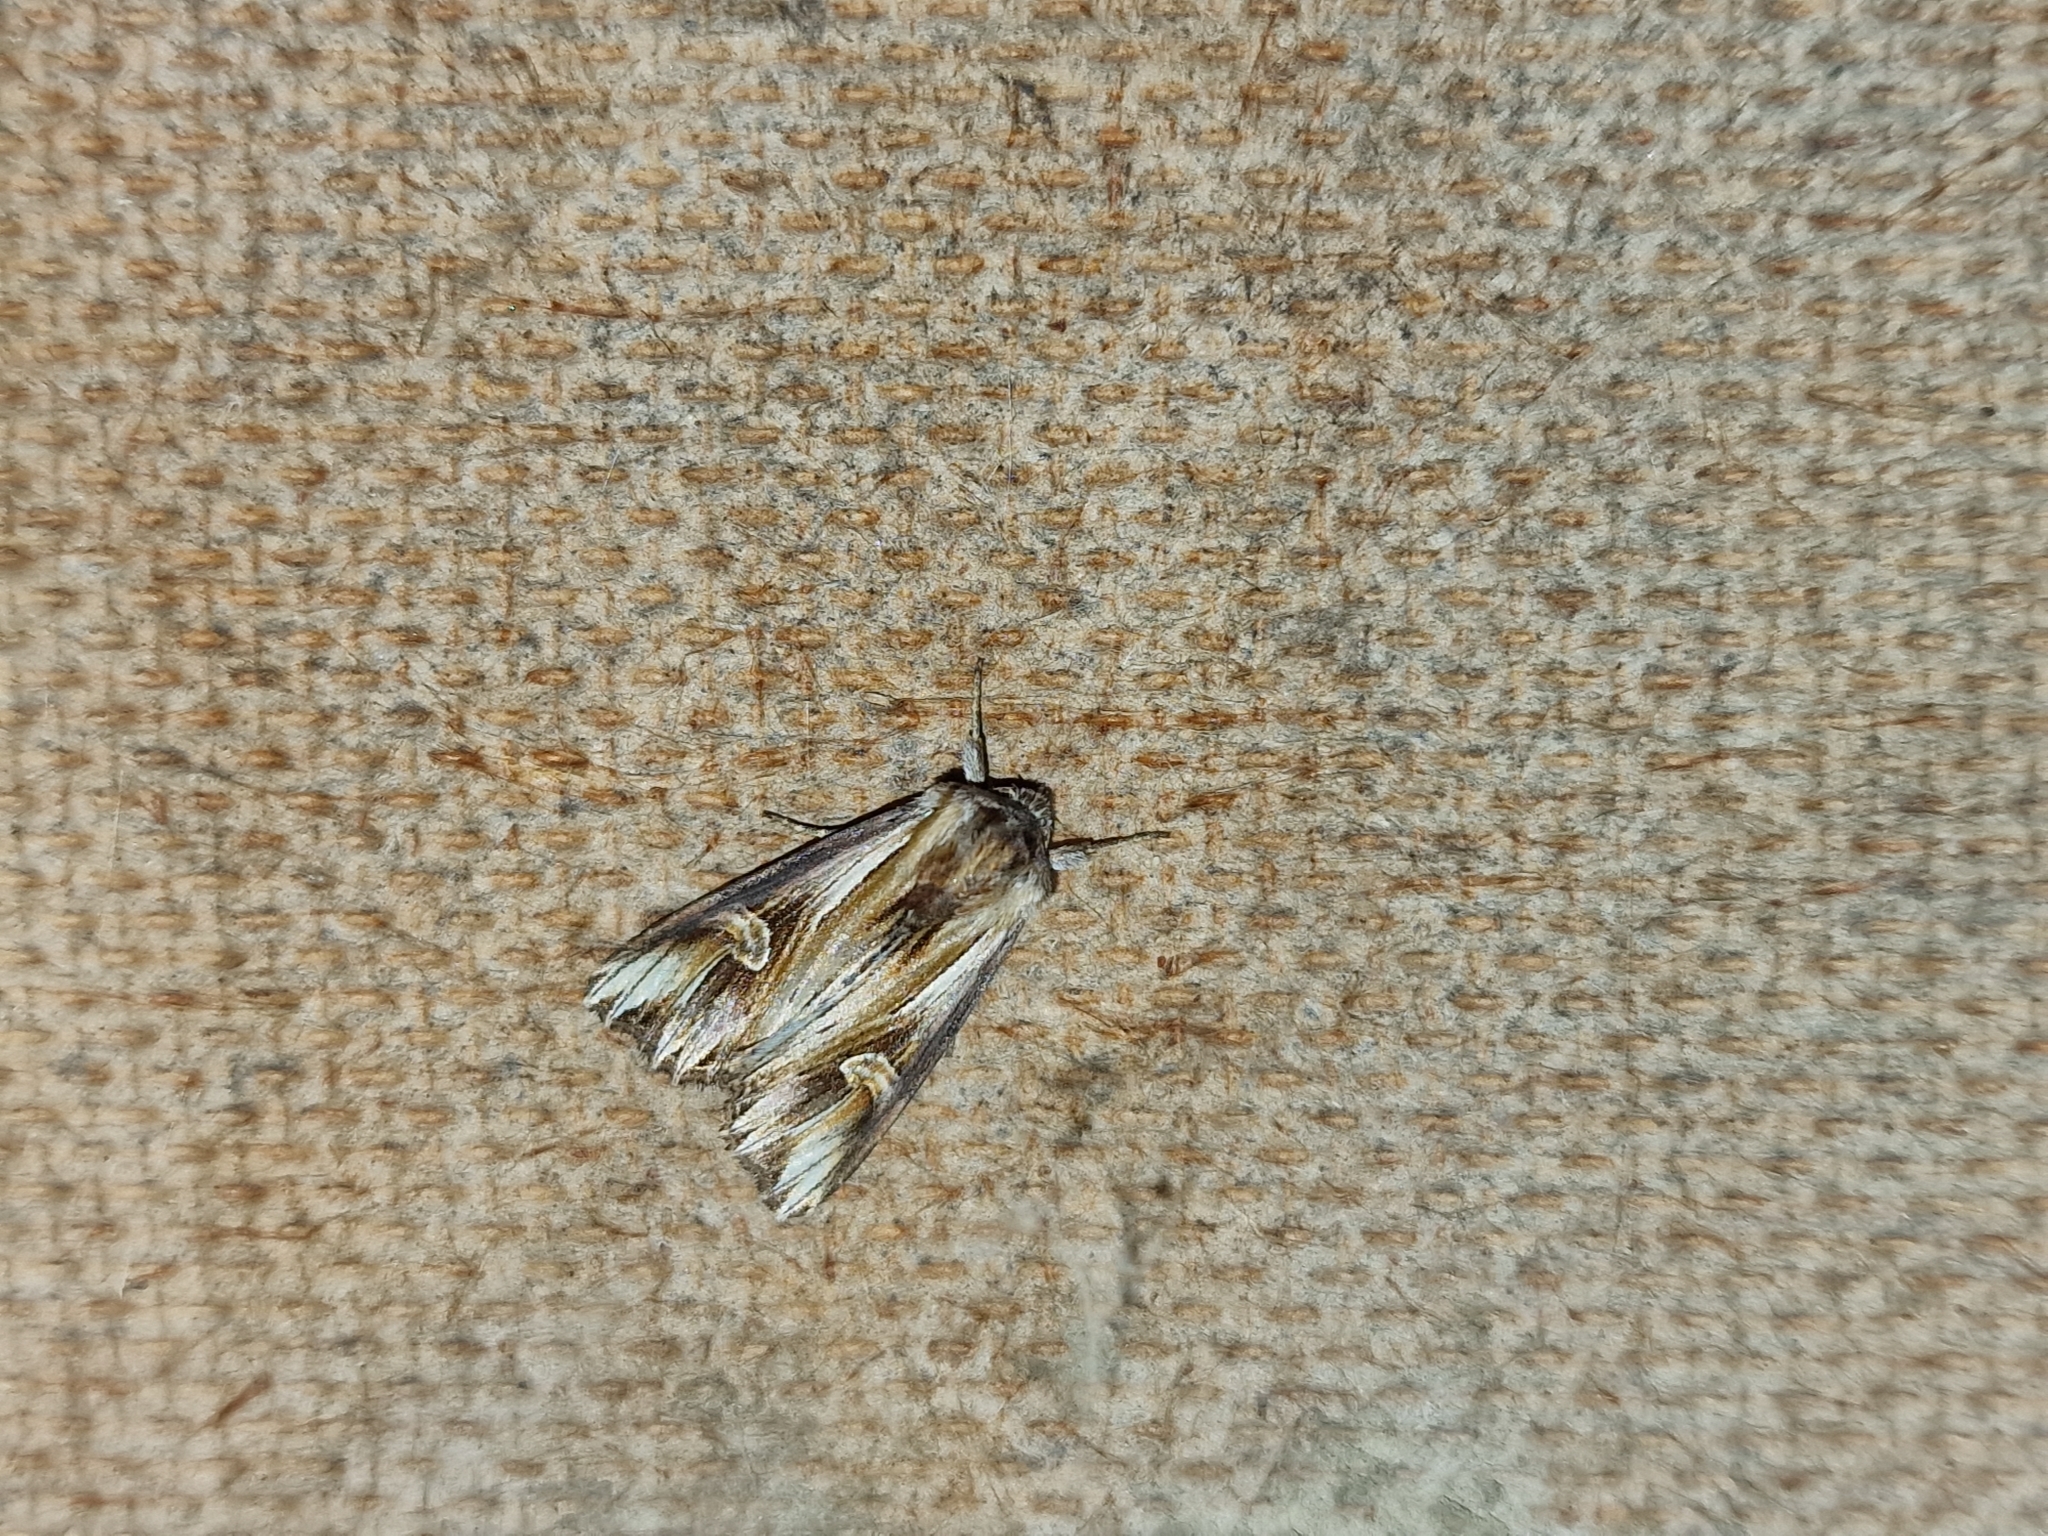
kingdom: Animalia
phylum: Arthropoda
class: Insecta
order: Lepidoptera
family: Noctuidae
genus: Actinotia
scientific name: Actinotia polyodon
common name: Purple cloud
